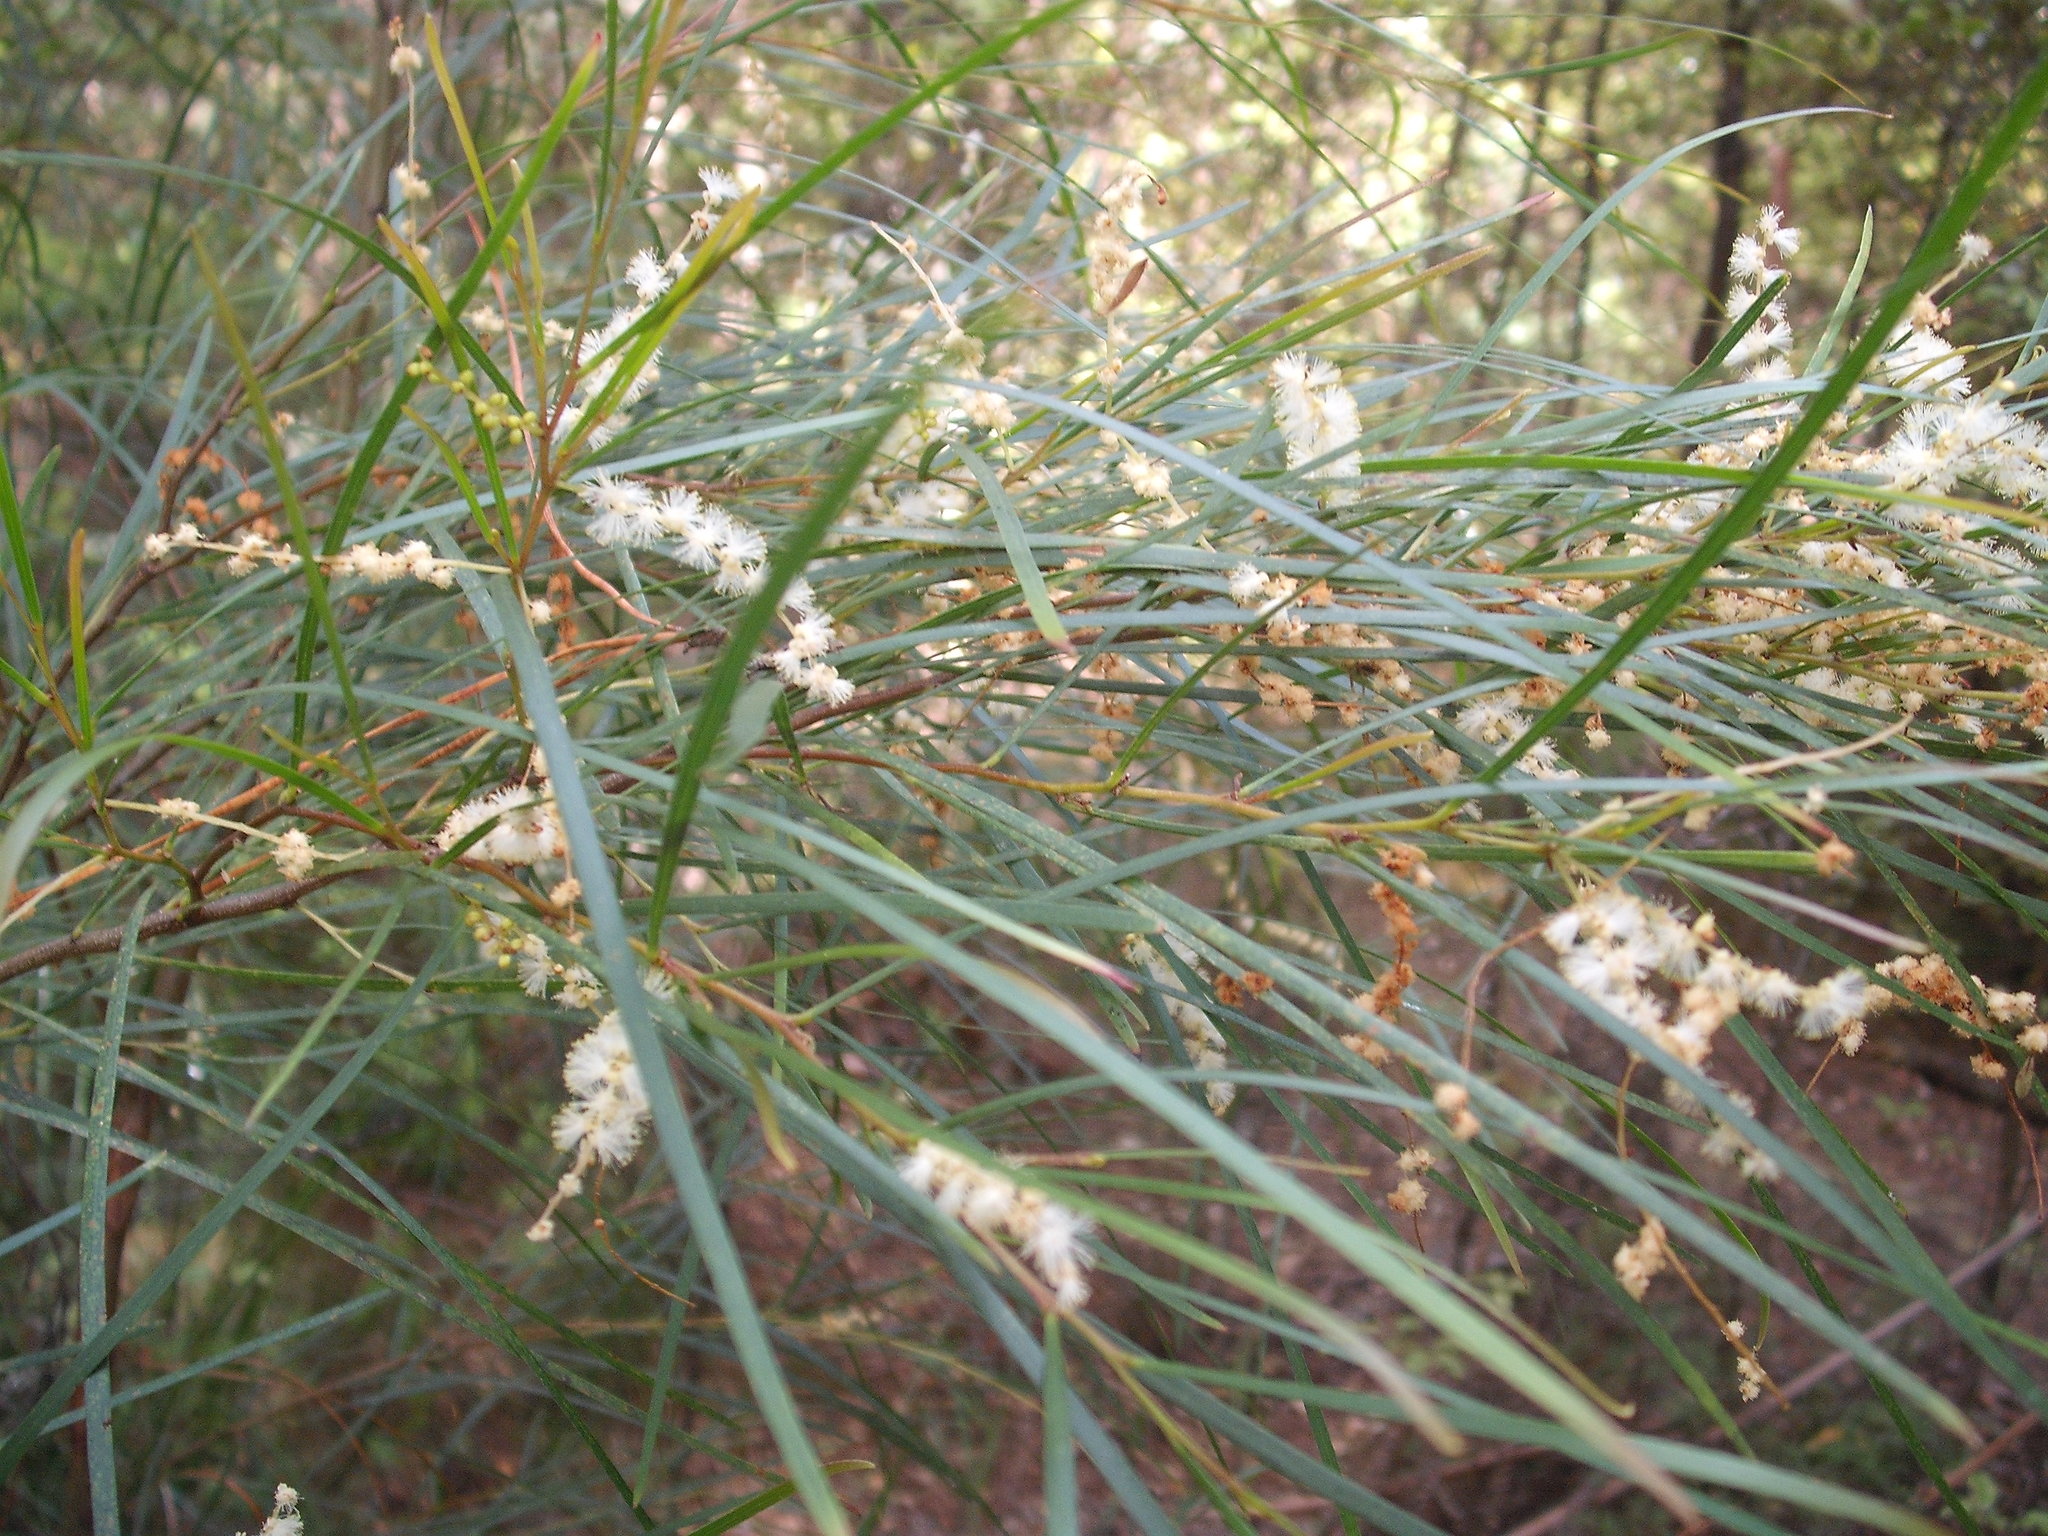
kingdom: Plantae
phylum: Tracheophyta
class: Magnoliopsida
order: Fabales
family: Fabaceae
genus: Acacia
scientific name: Acacia longissima
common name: Longleaf wattle
